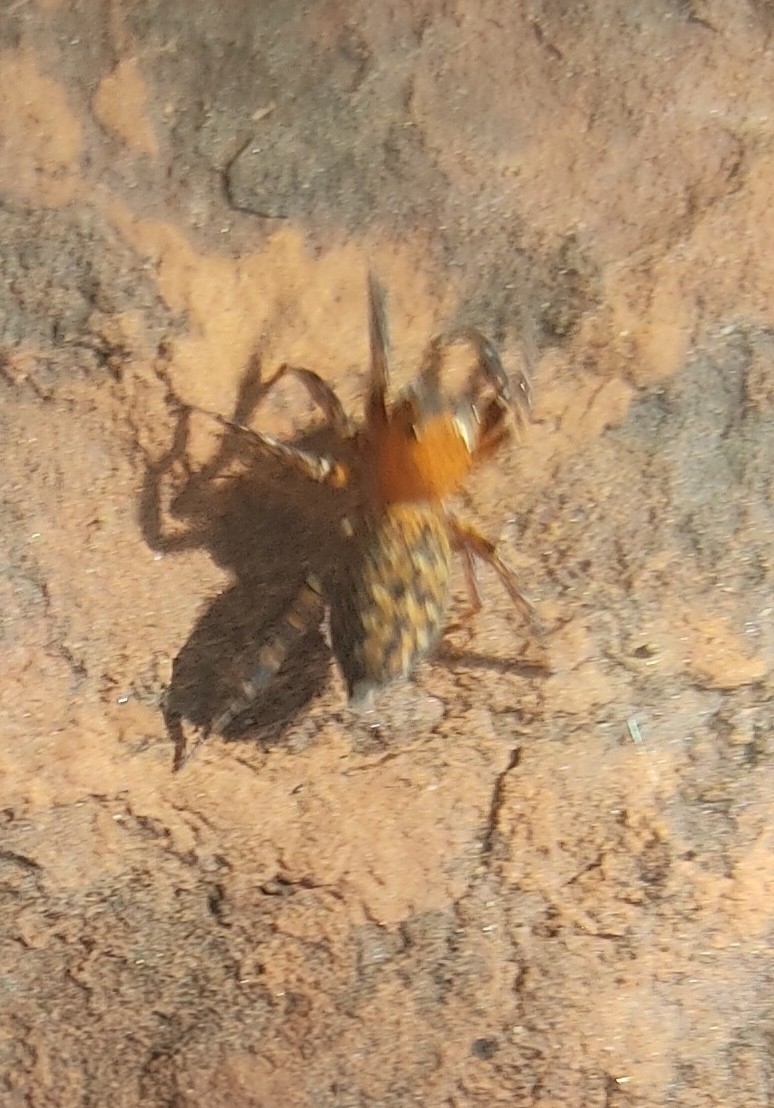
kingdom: Animalia
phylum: Arthropoda
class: Arachnida
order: Araneae
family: Salticidae
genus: Cyrba
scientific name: Cyrba algerina
